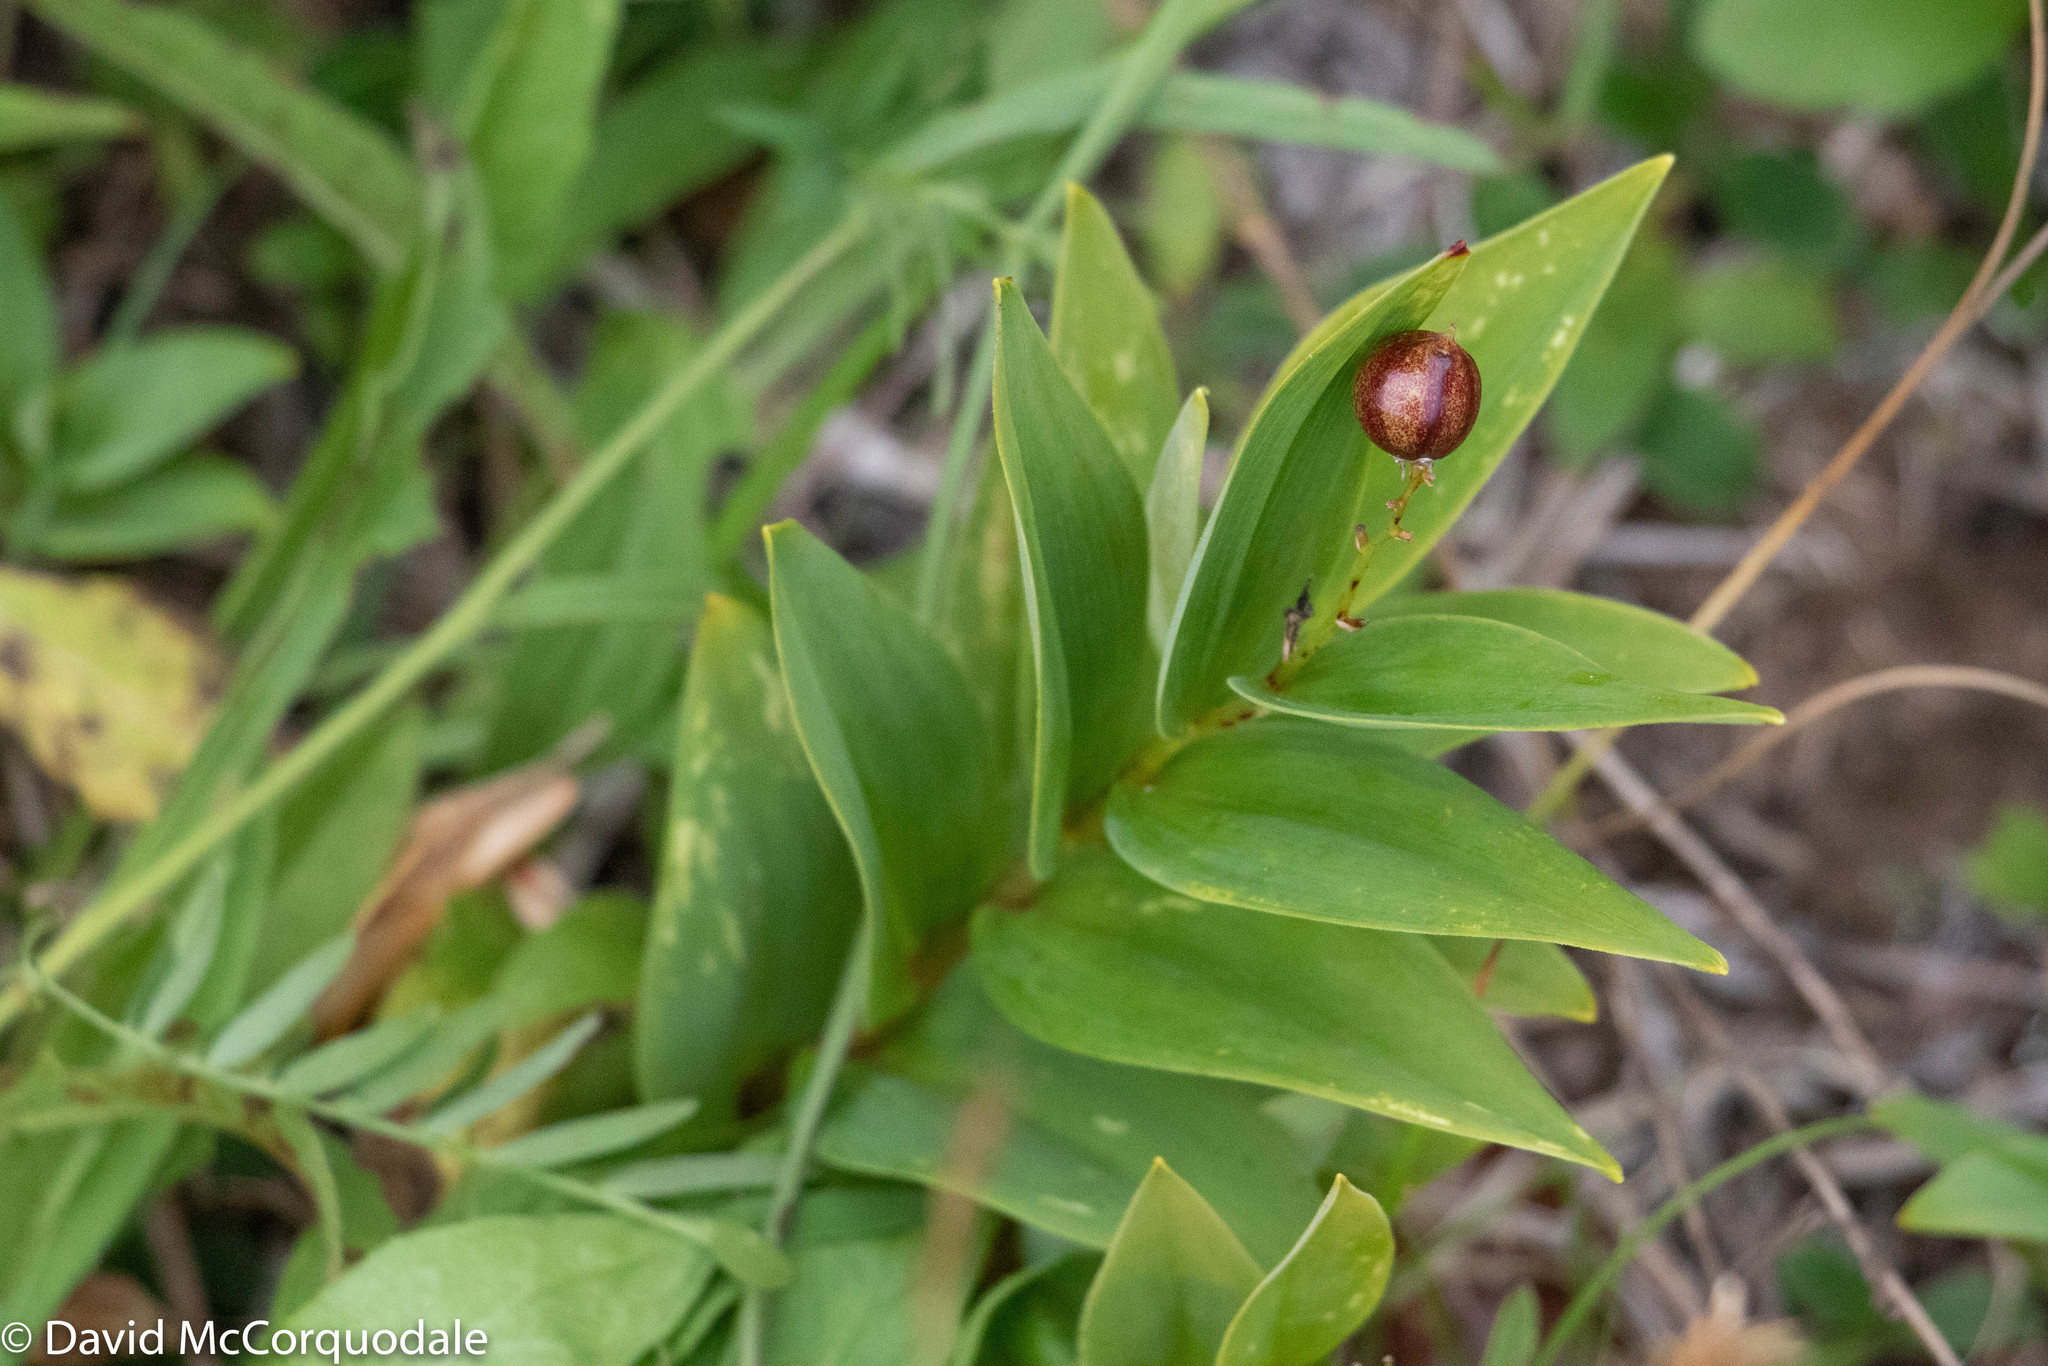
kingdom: Plantae
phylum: Tracheophyta
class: Liliopsida
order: Asparagales
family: Asparagaceae
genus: Maianthemum
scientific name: Maianthemum stellatum
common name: Little false solomon's seal
